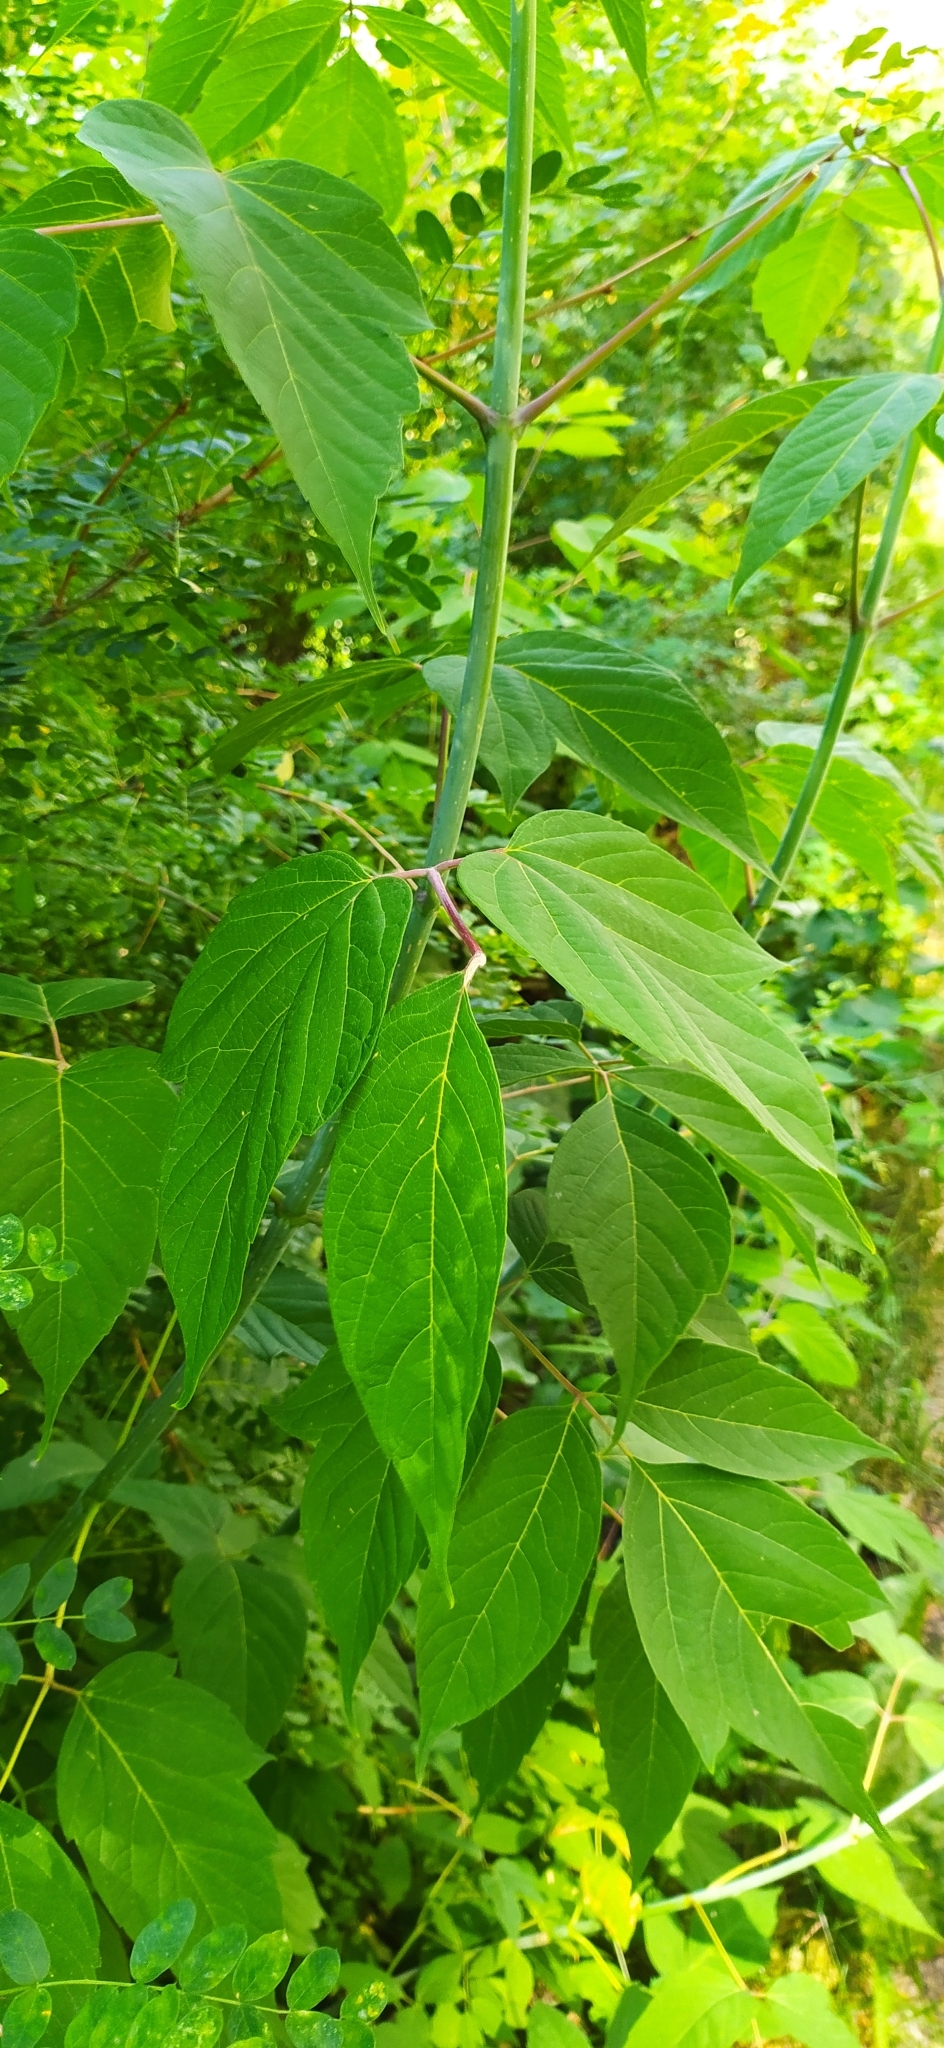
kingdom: Plantae
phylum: Tracheophyta
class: Magnoliopsida
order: Sapindales
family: Sapindaceae
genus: Acer
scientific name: Acer negundo
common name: Ashleaf maple
